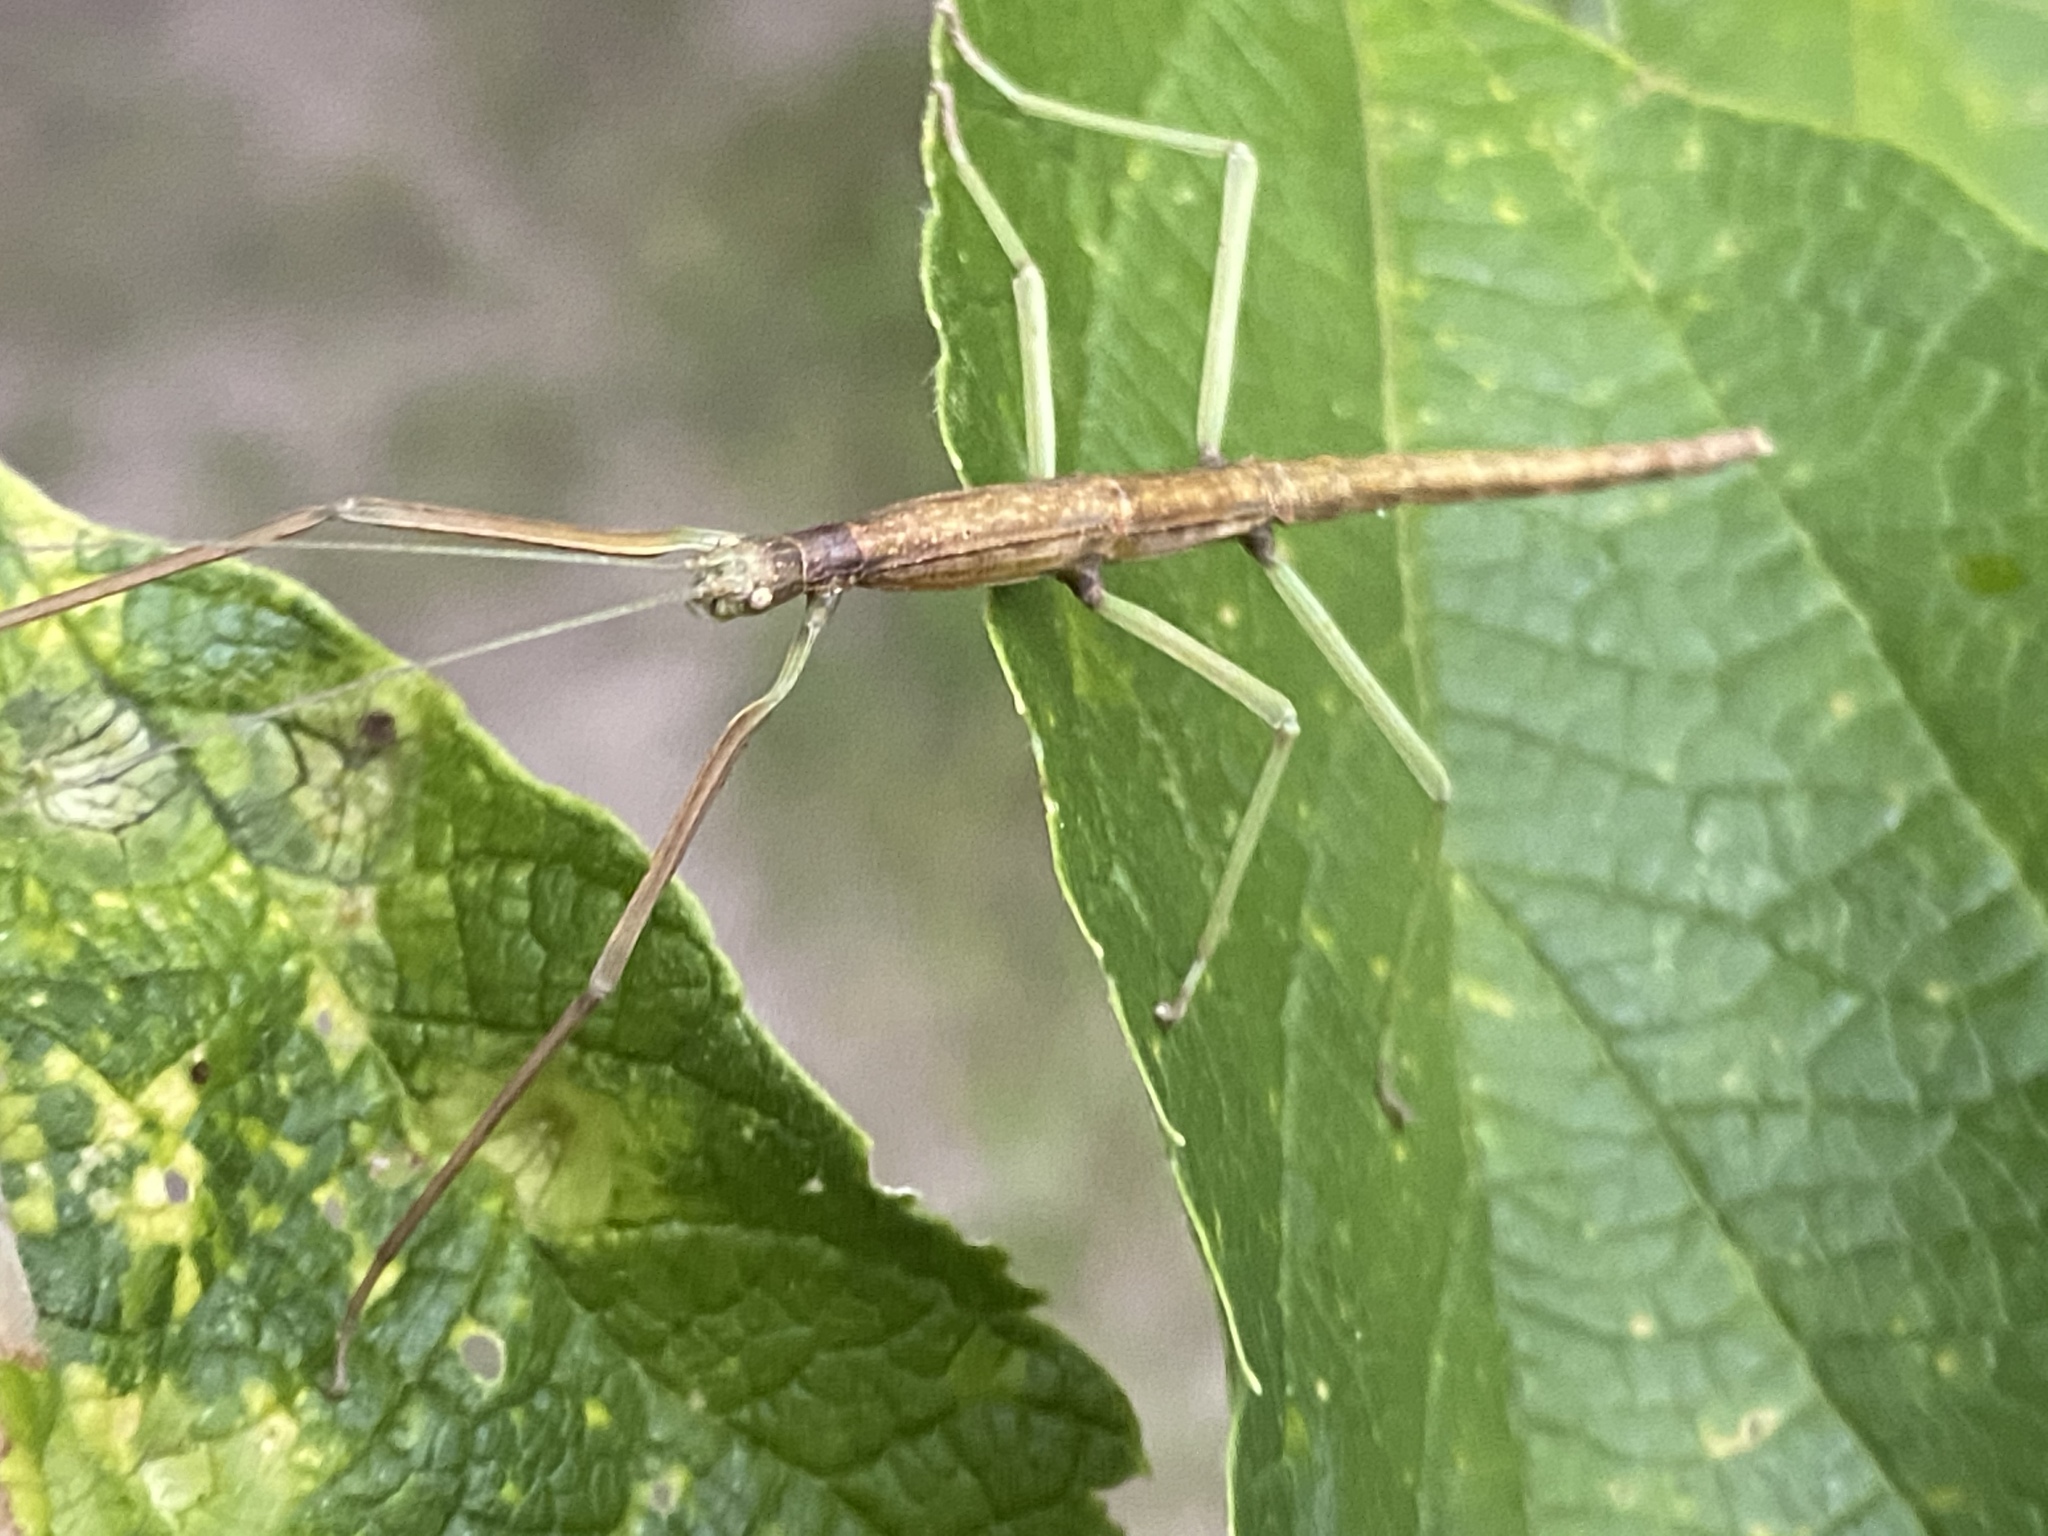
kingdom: Animalia
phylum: Arthropoda
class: Insecta
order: Phasmida
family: Diapheromeridae
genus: Diapheromera
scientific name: Diapheromera femorata
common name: Common american walkingstick
